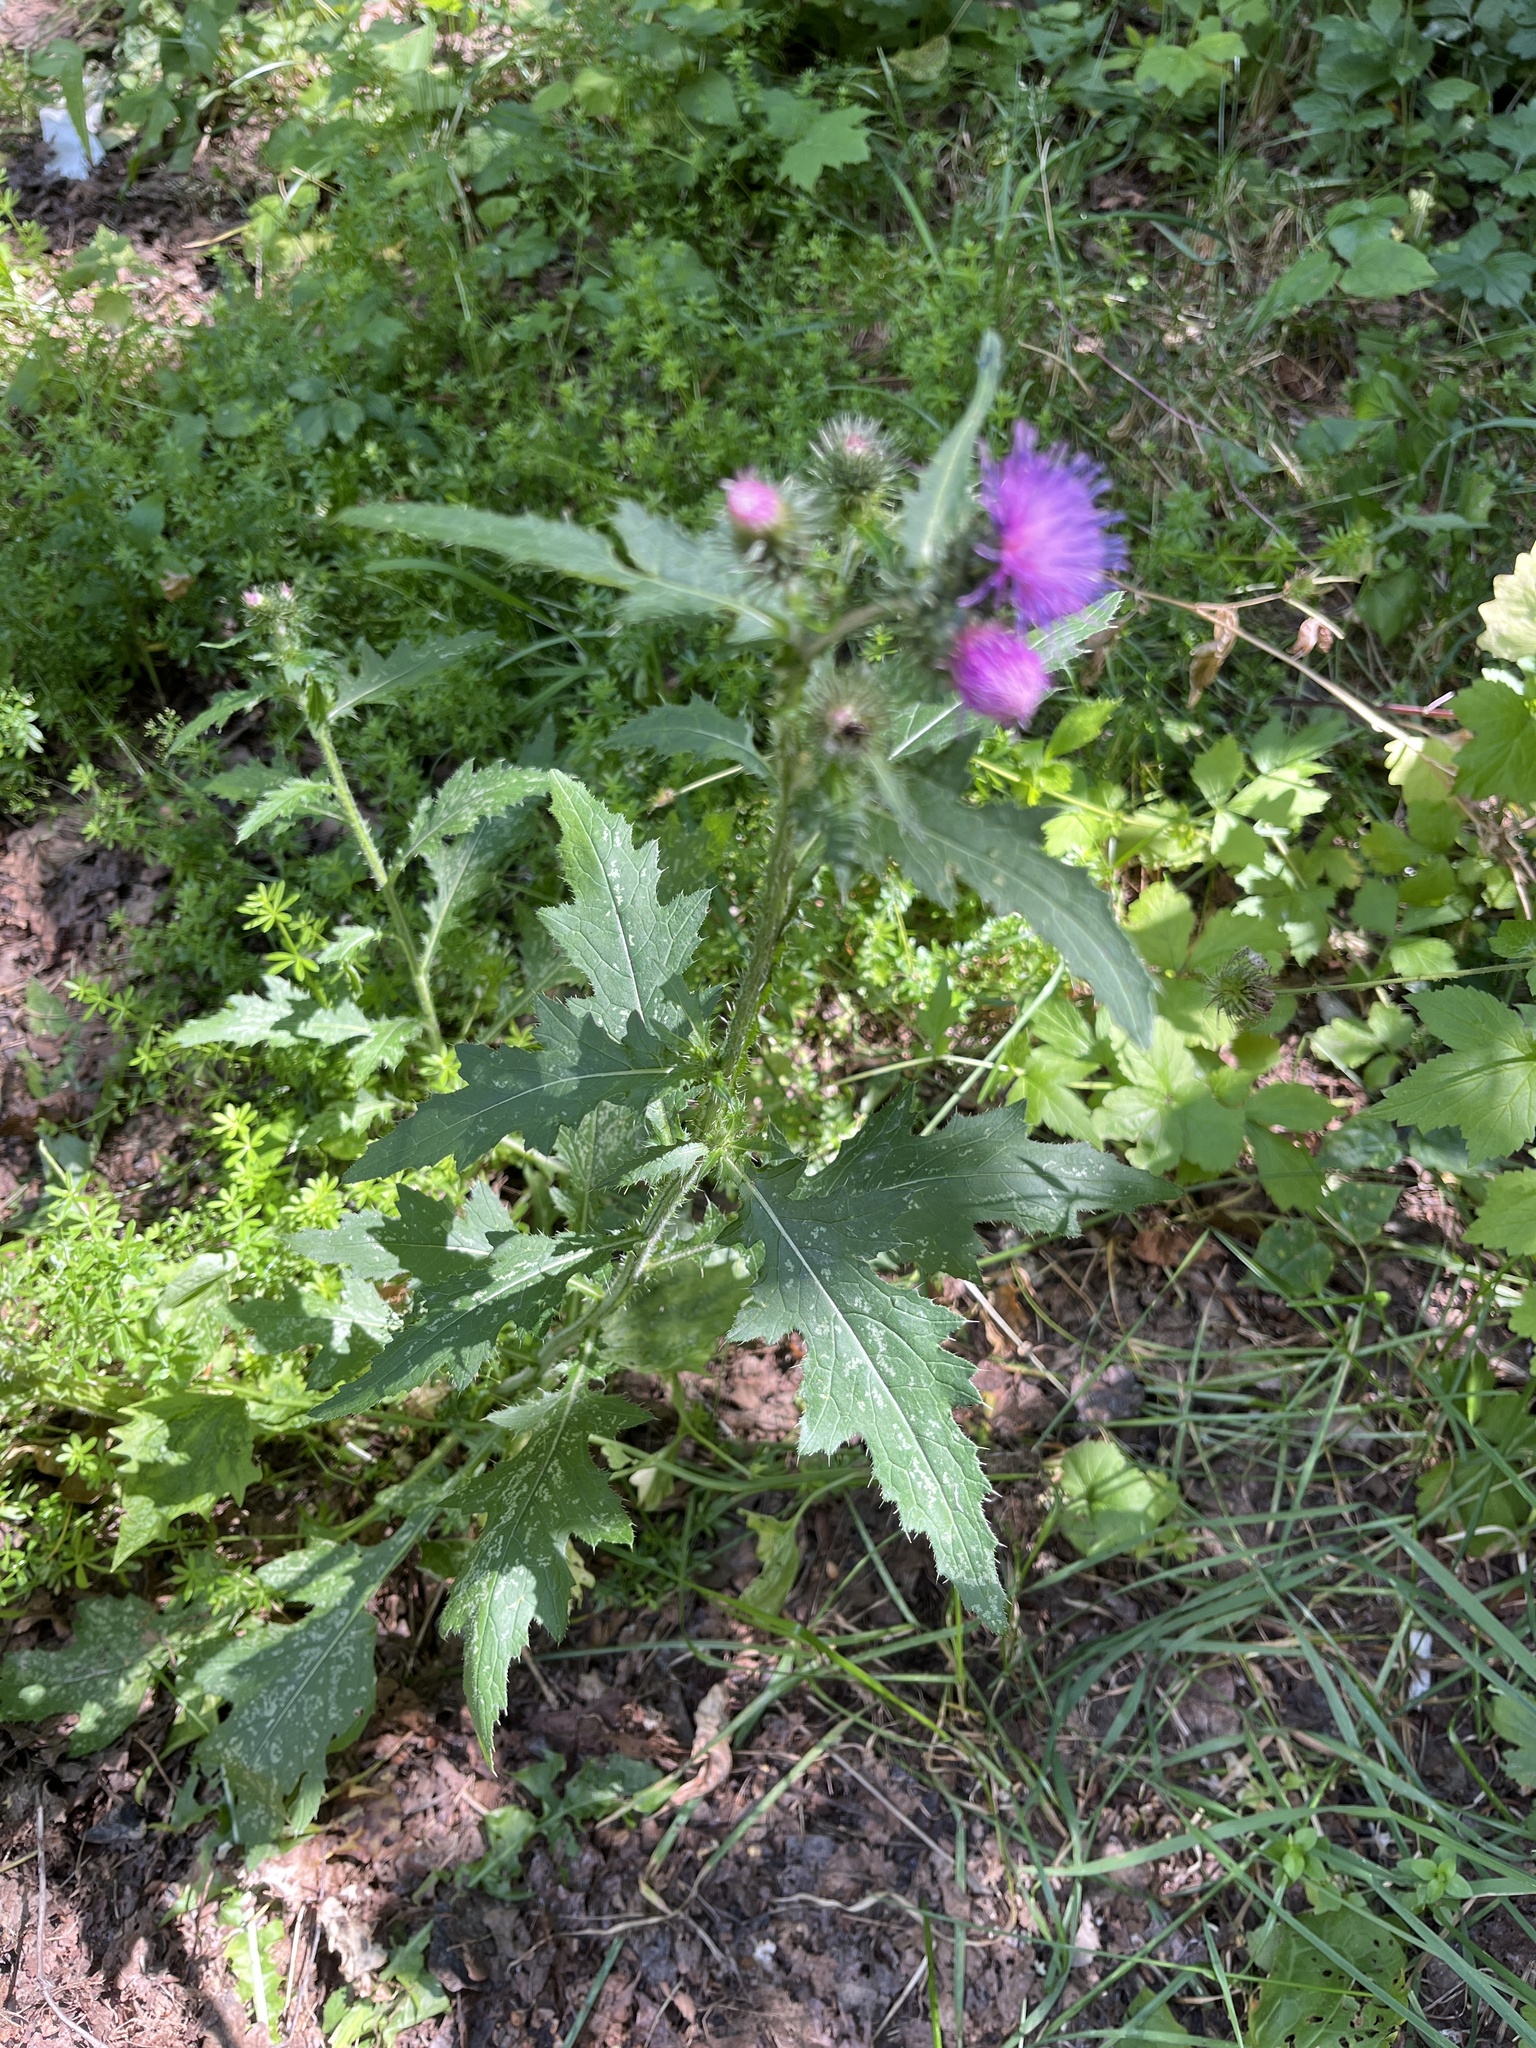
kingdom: Plantae
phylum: Tracheophyta
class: Magnoliopsida
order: Asterales
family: Asteraceae
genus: Carduus
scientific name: Carduus crispus
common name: Welted thistle
